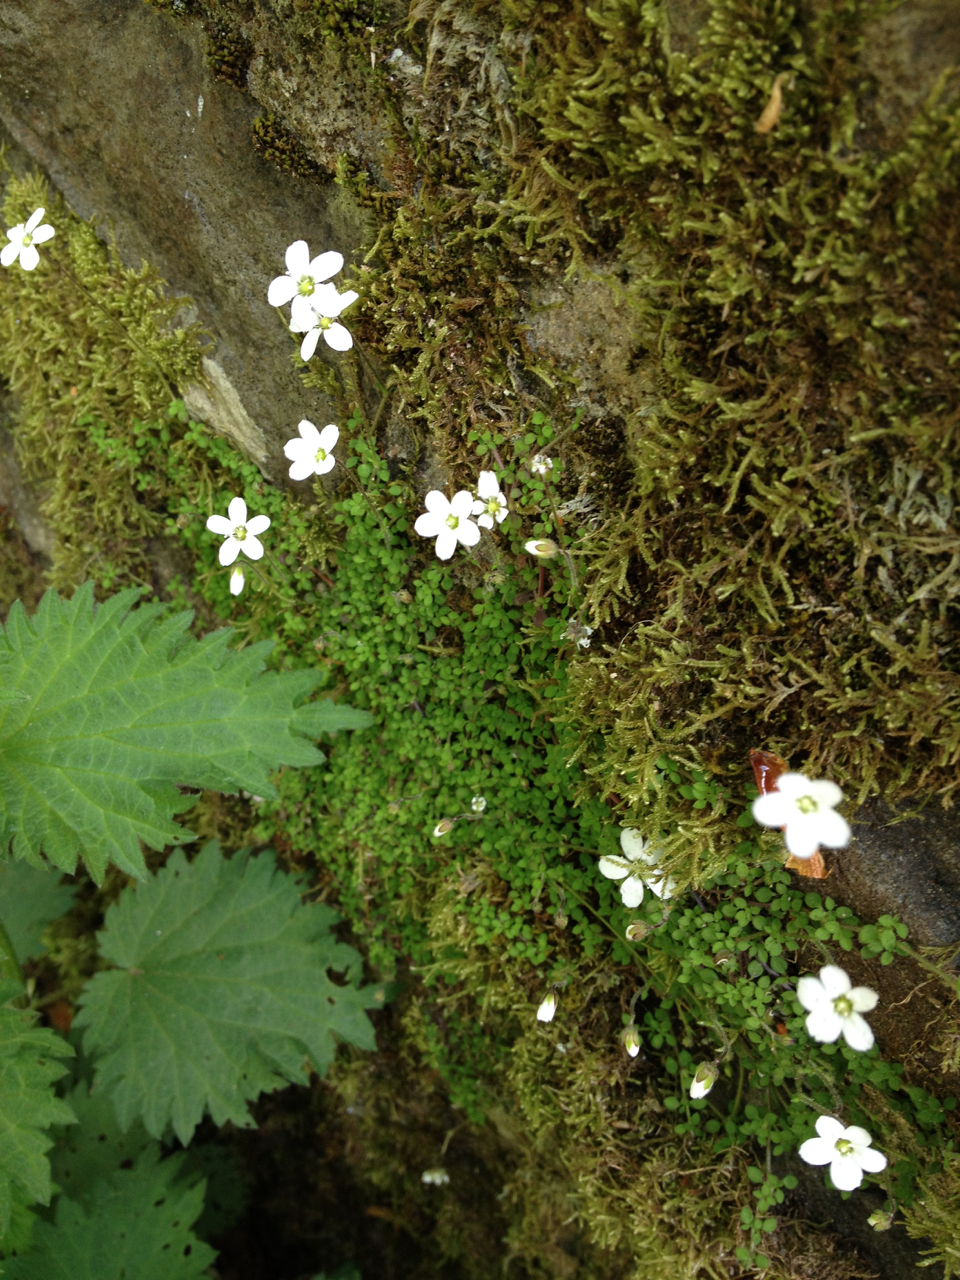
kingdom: Plantae
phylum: Tracheophyta
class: Magnoliopsida
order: Caryophyllales
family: Caryophyllaceae
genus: Arenaria
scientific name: Arenaria balearica
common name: Mossy sandwort
